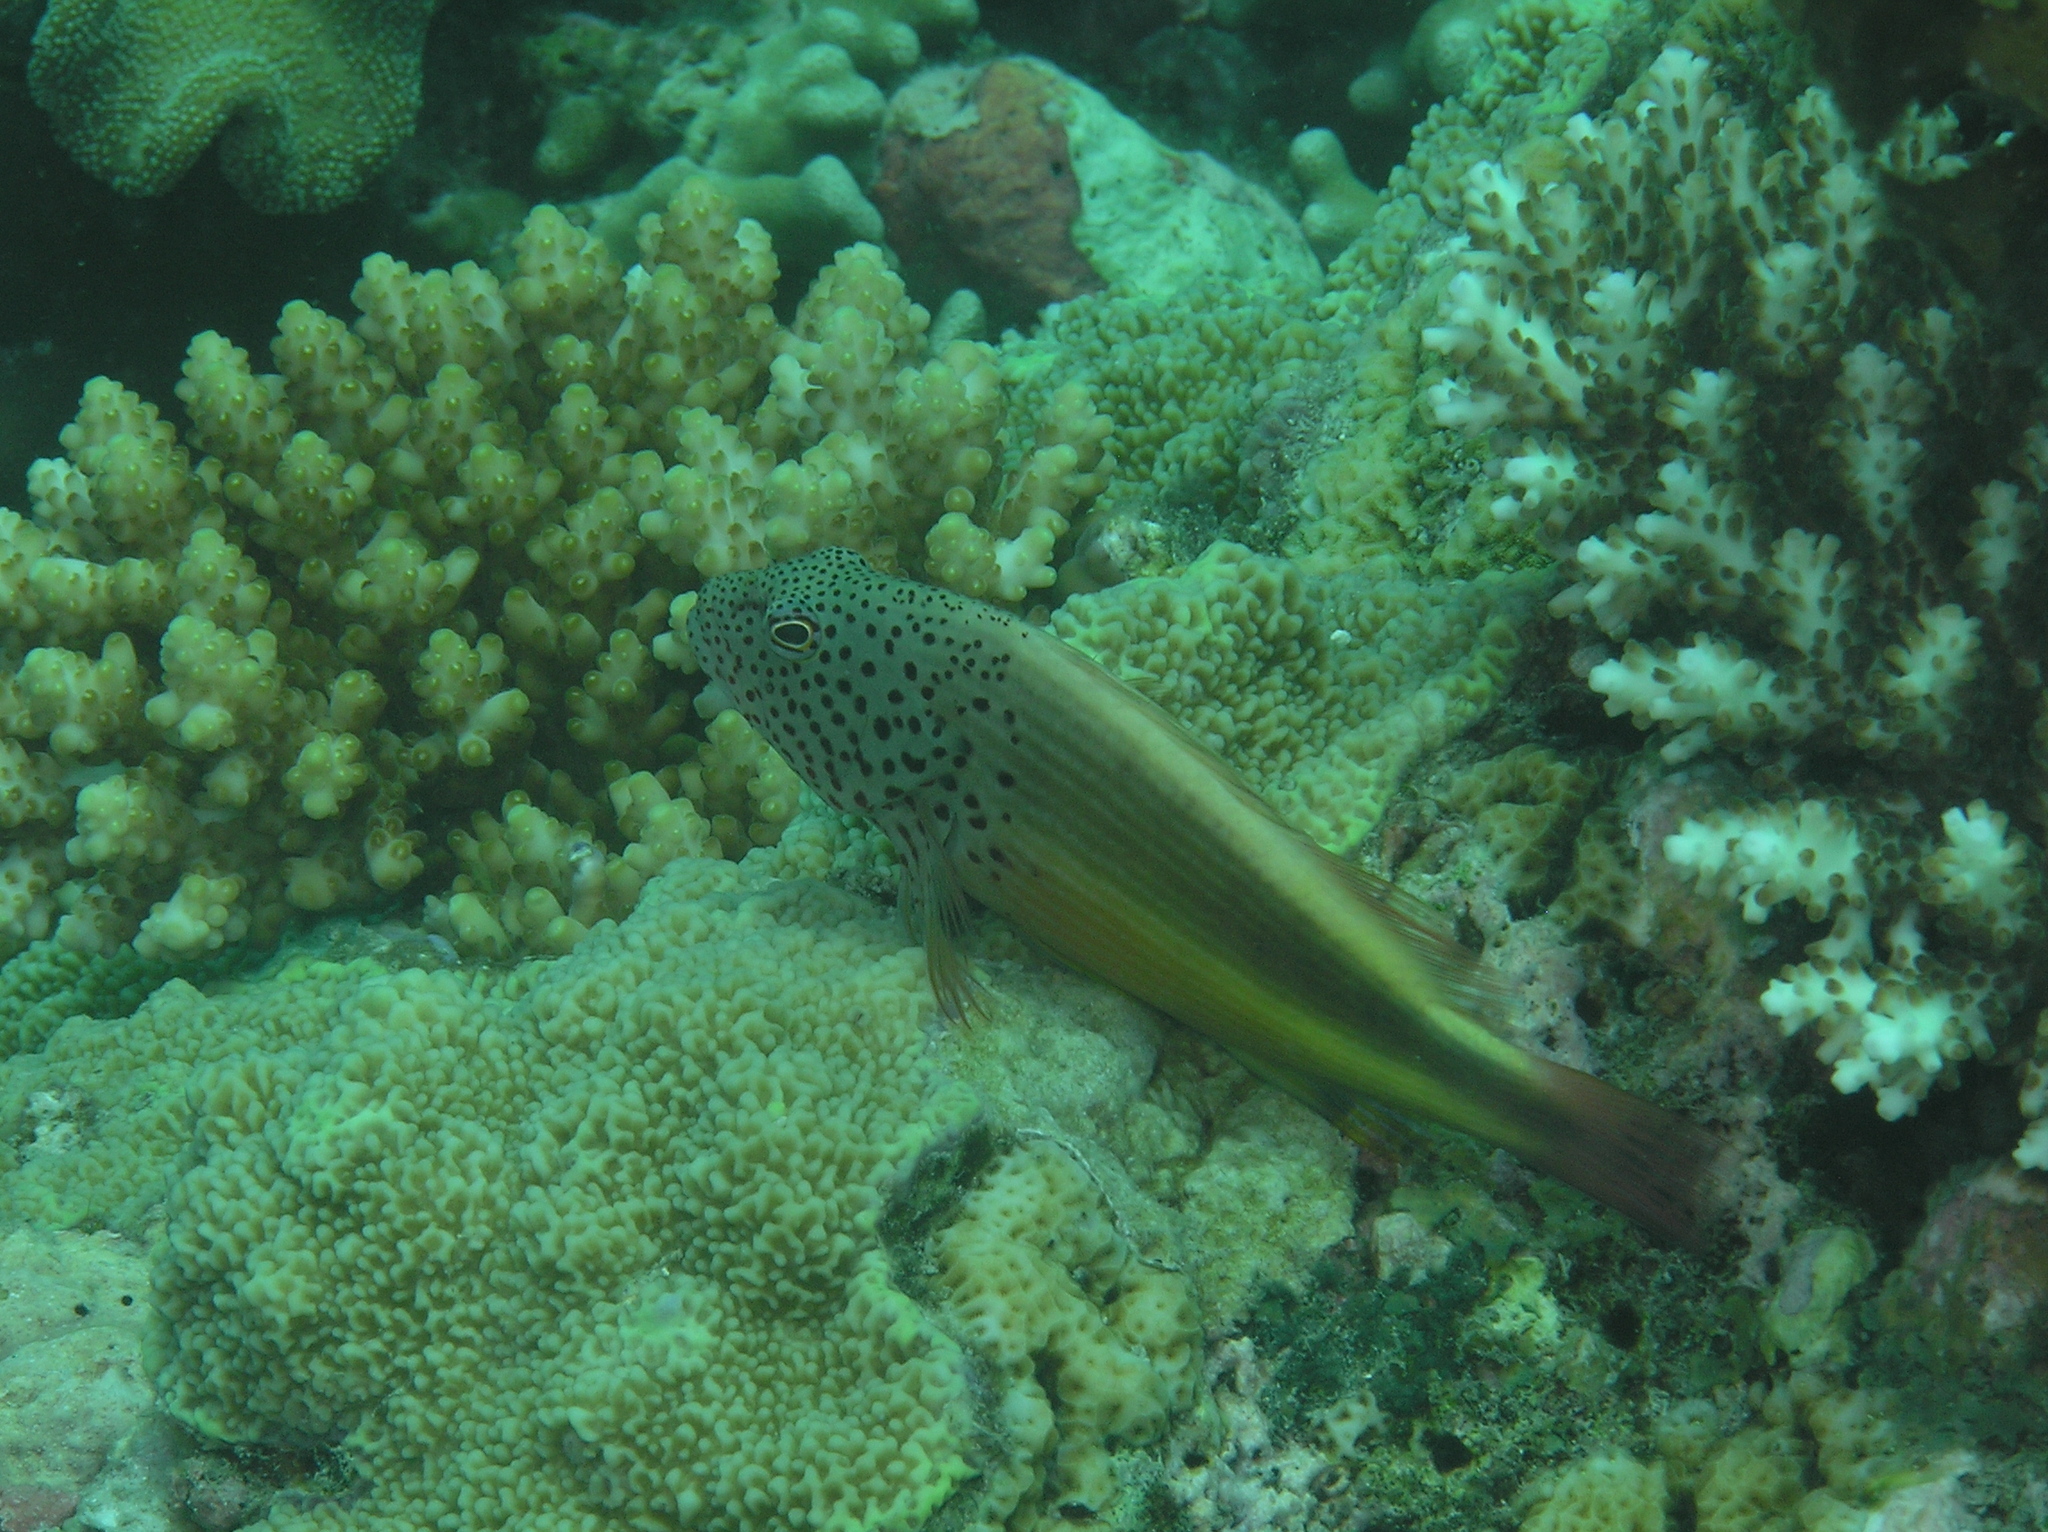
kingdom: Animalia
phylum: Chordata
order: Perciformes
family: Cirrhitidae
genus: Paracirrhites
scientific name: Paracirrhites forsteri
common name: Freckled hawkfish
